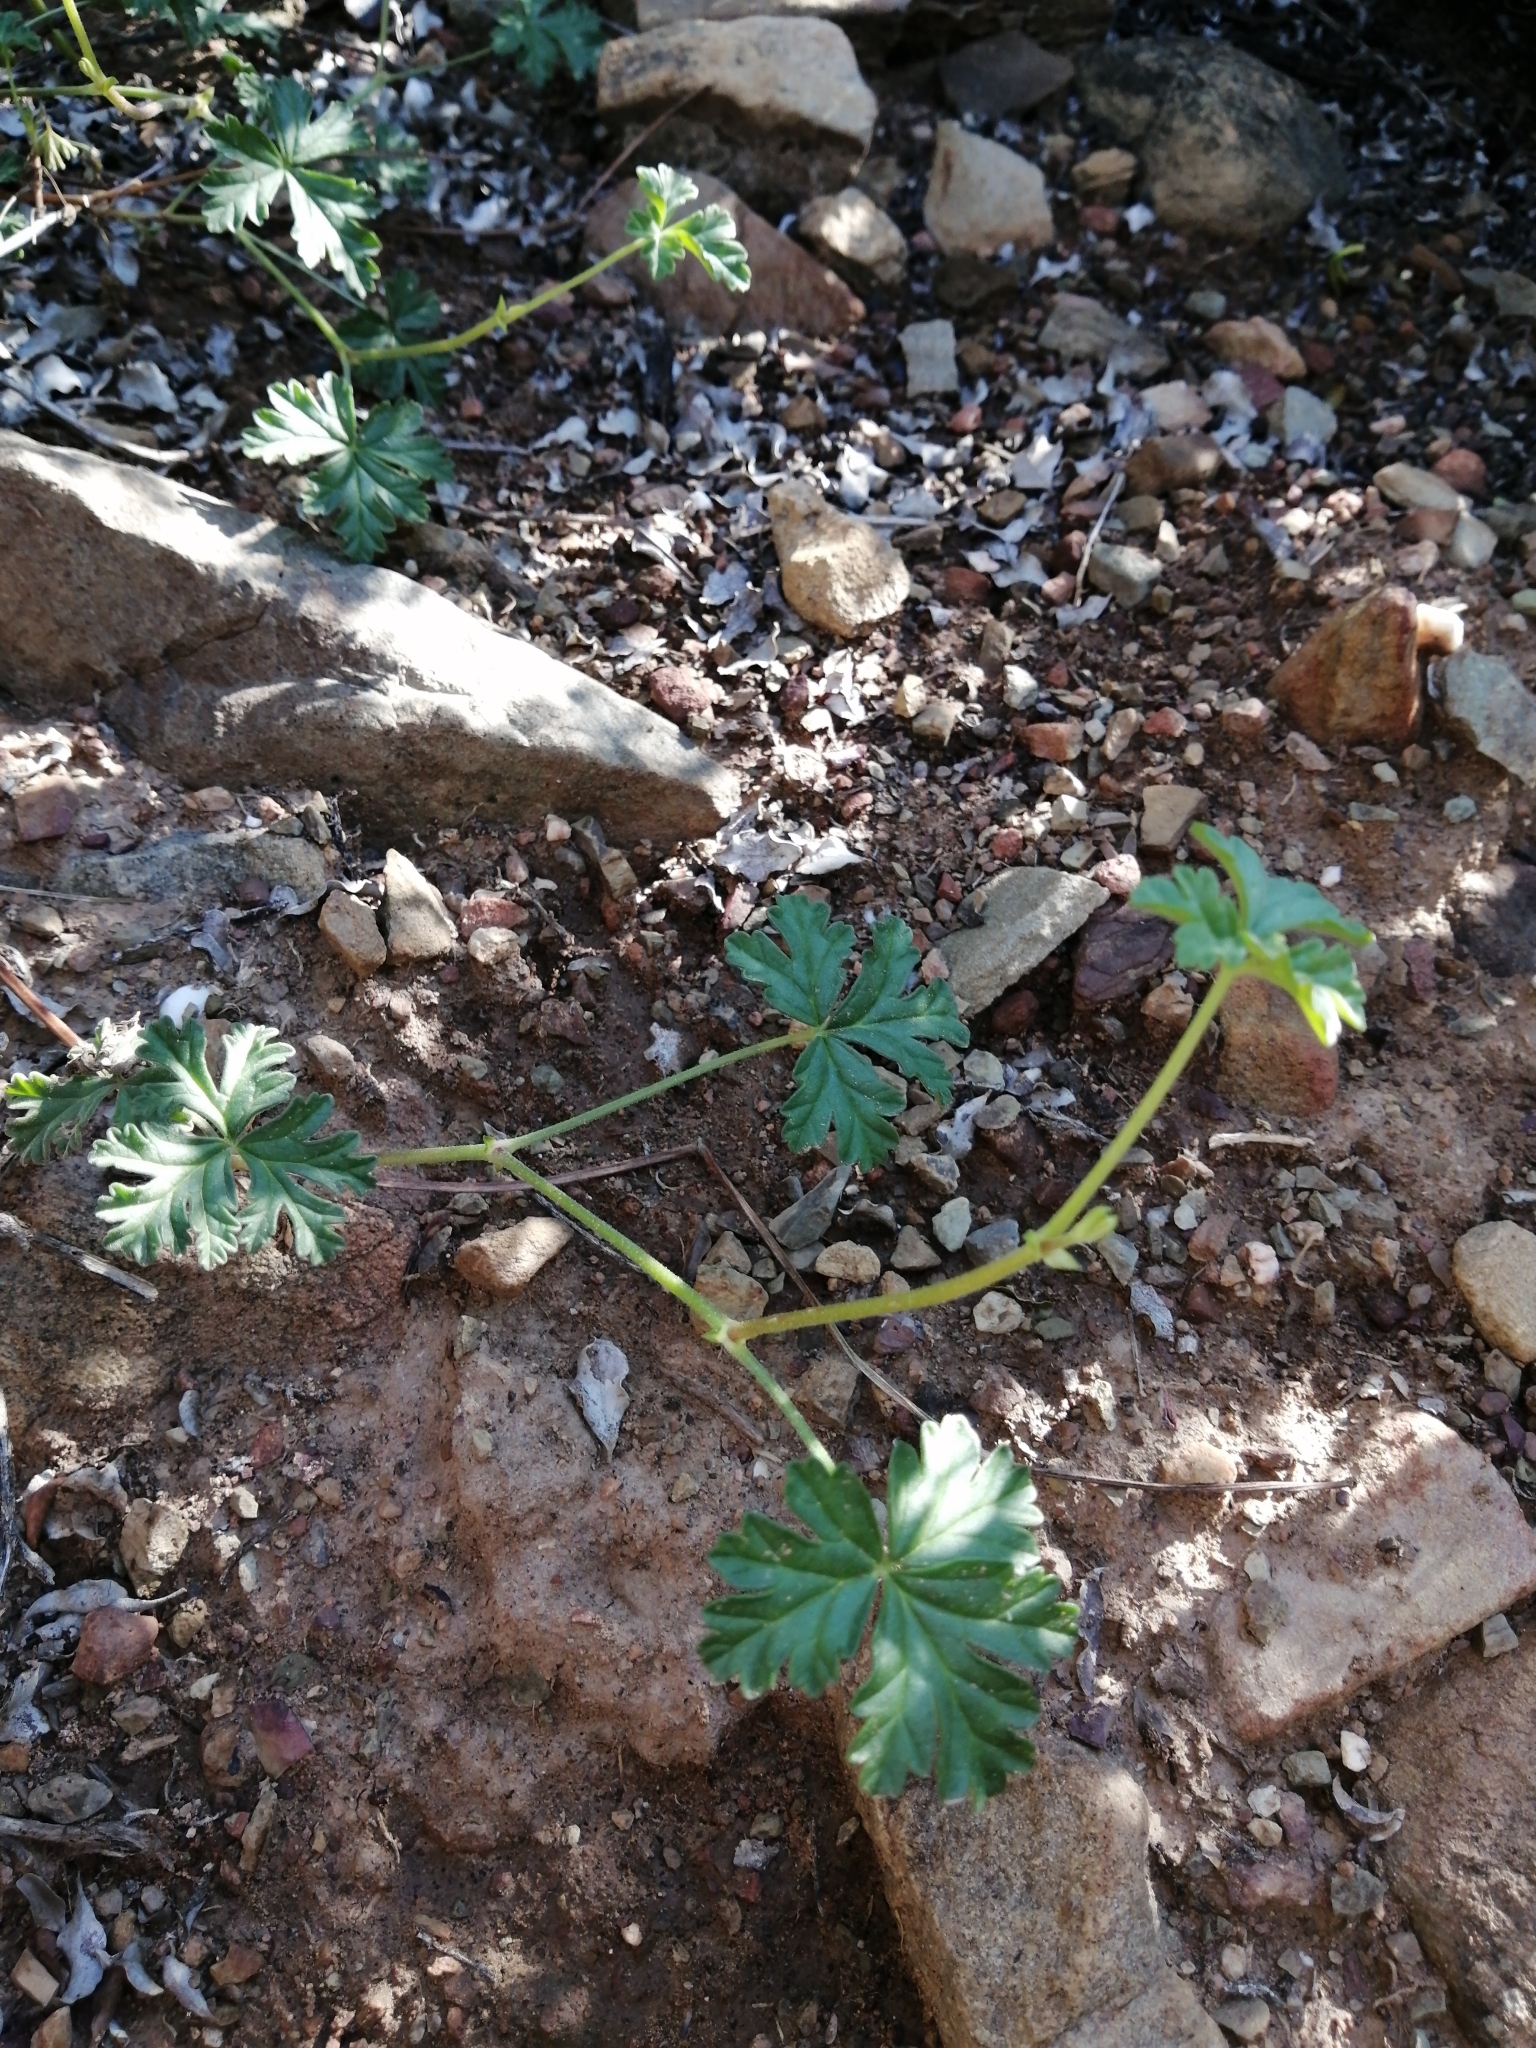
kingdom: Plantae
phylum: Tracheophyta
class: Magnoliopsida
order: Geraniales
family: Geraniaceae
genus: Pelargonium
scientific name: Pelargonium trifidum
